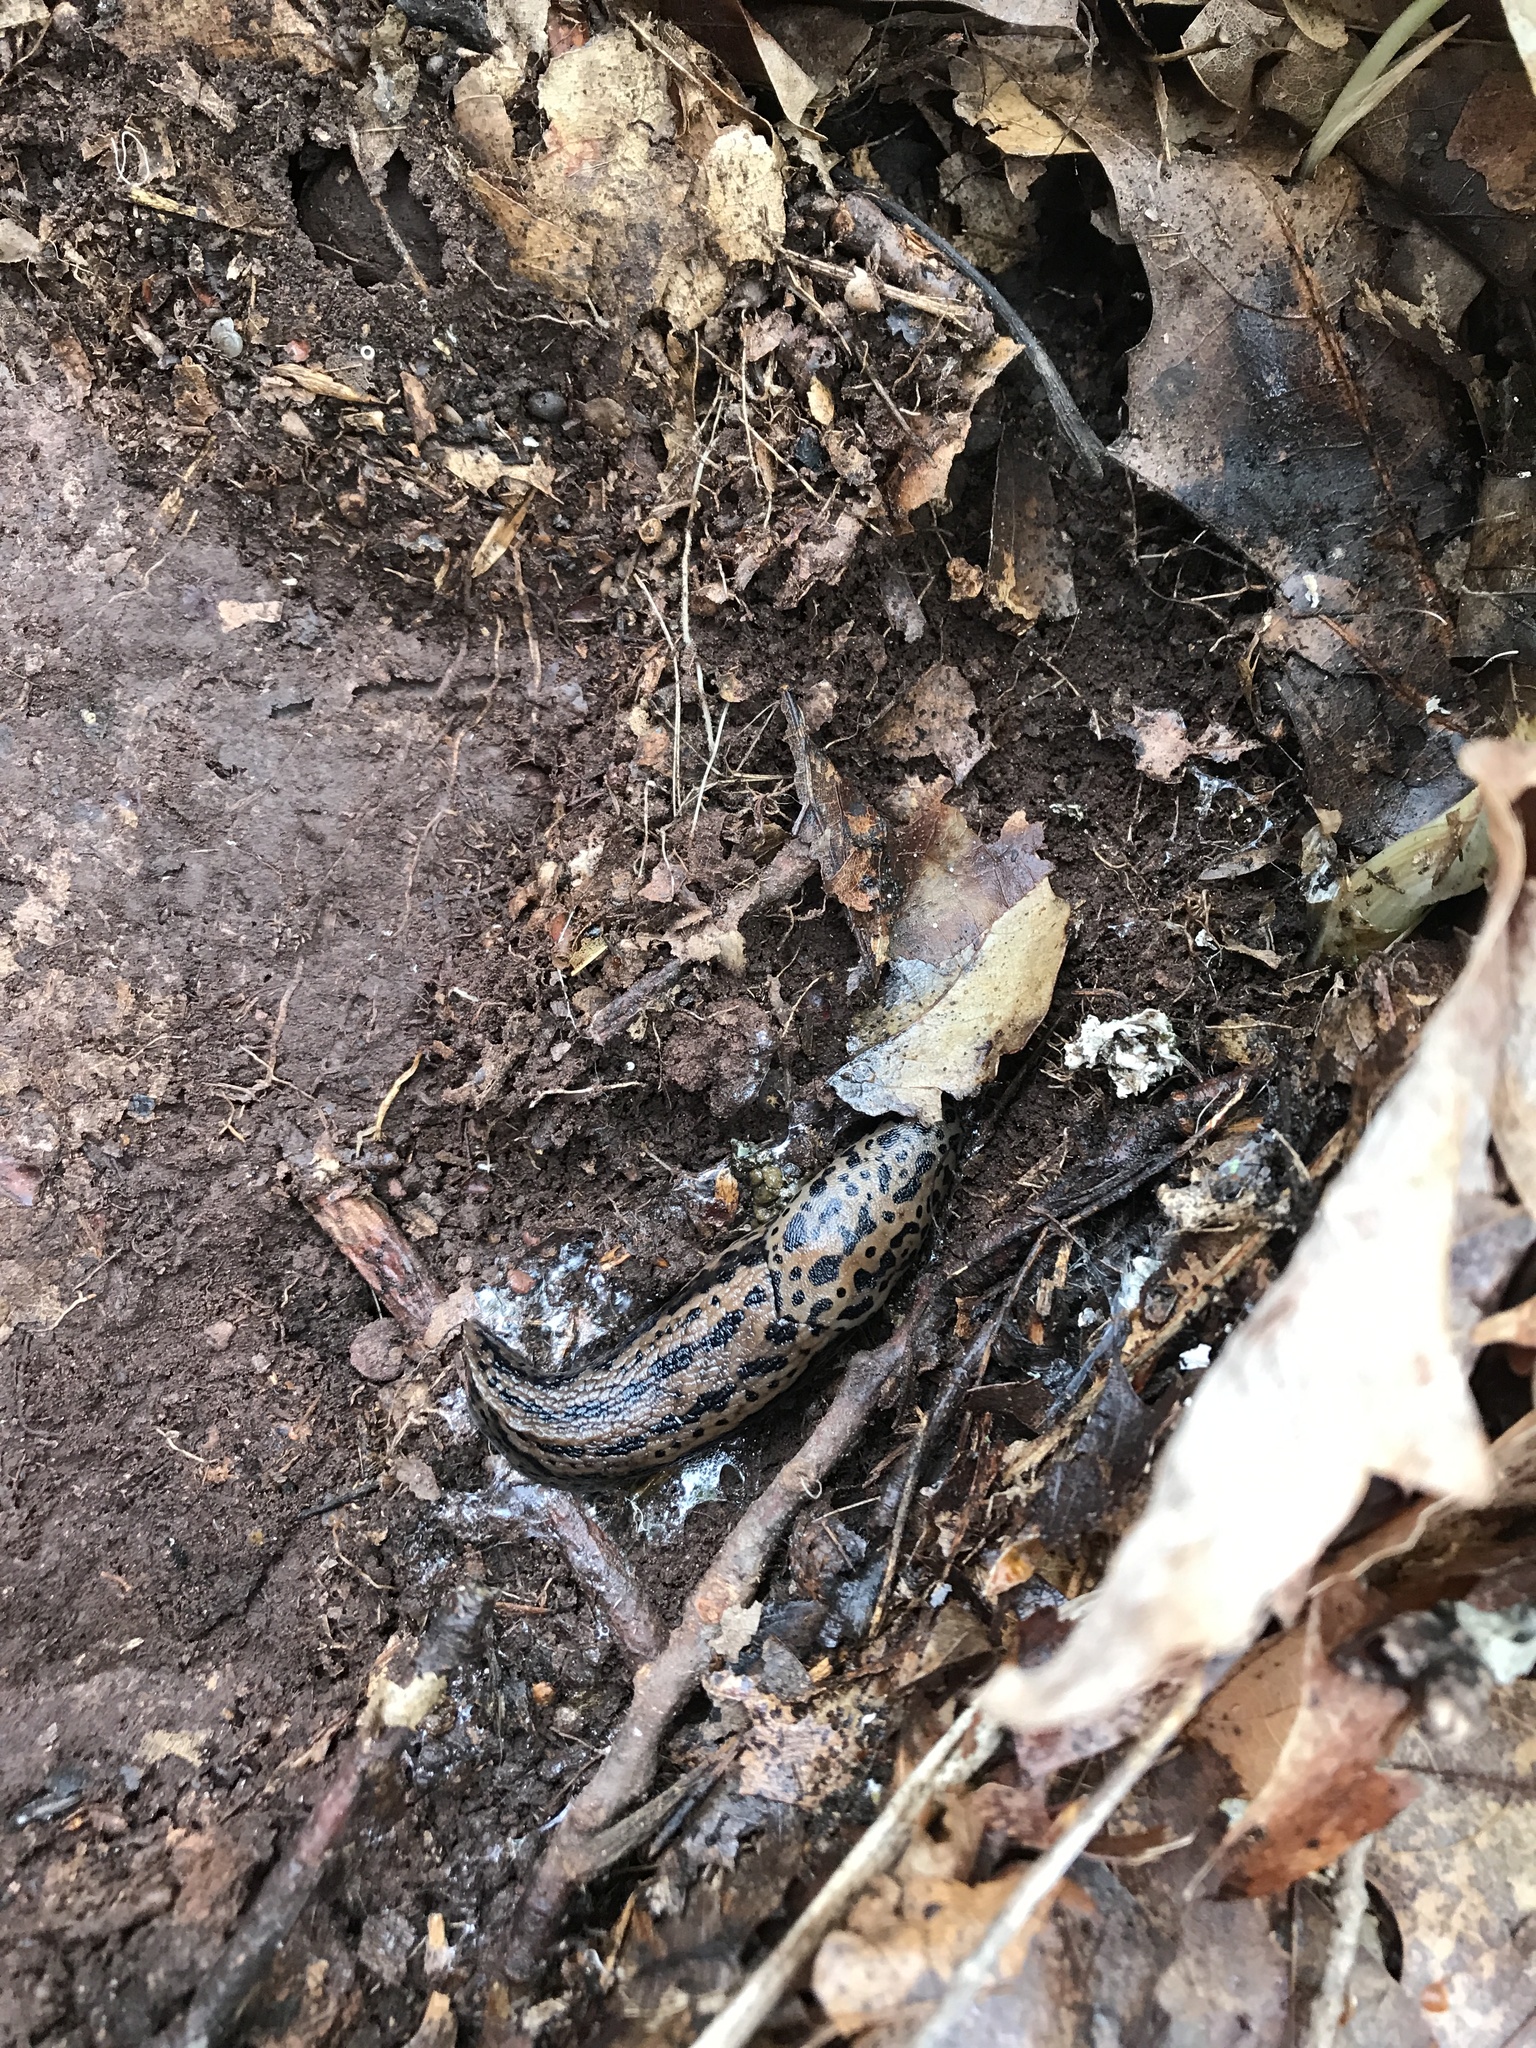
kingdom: Animalia
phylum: Mollusca
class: Gastropoda
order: Stylommatophora
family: Limacidae
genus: Limax
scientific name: Limax maximus
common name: Great grey slug
